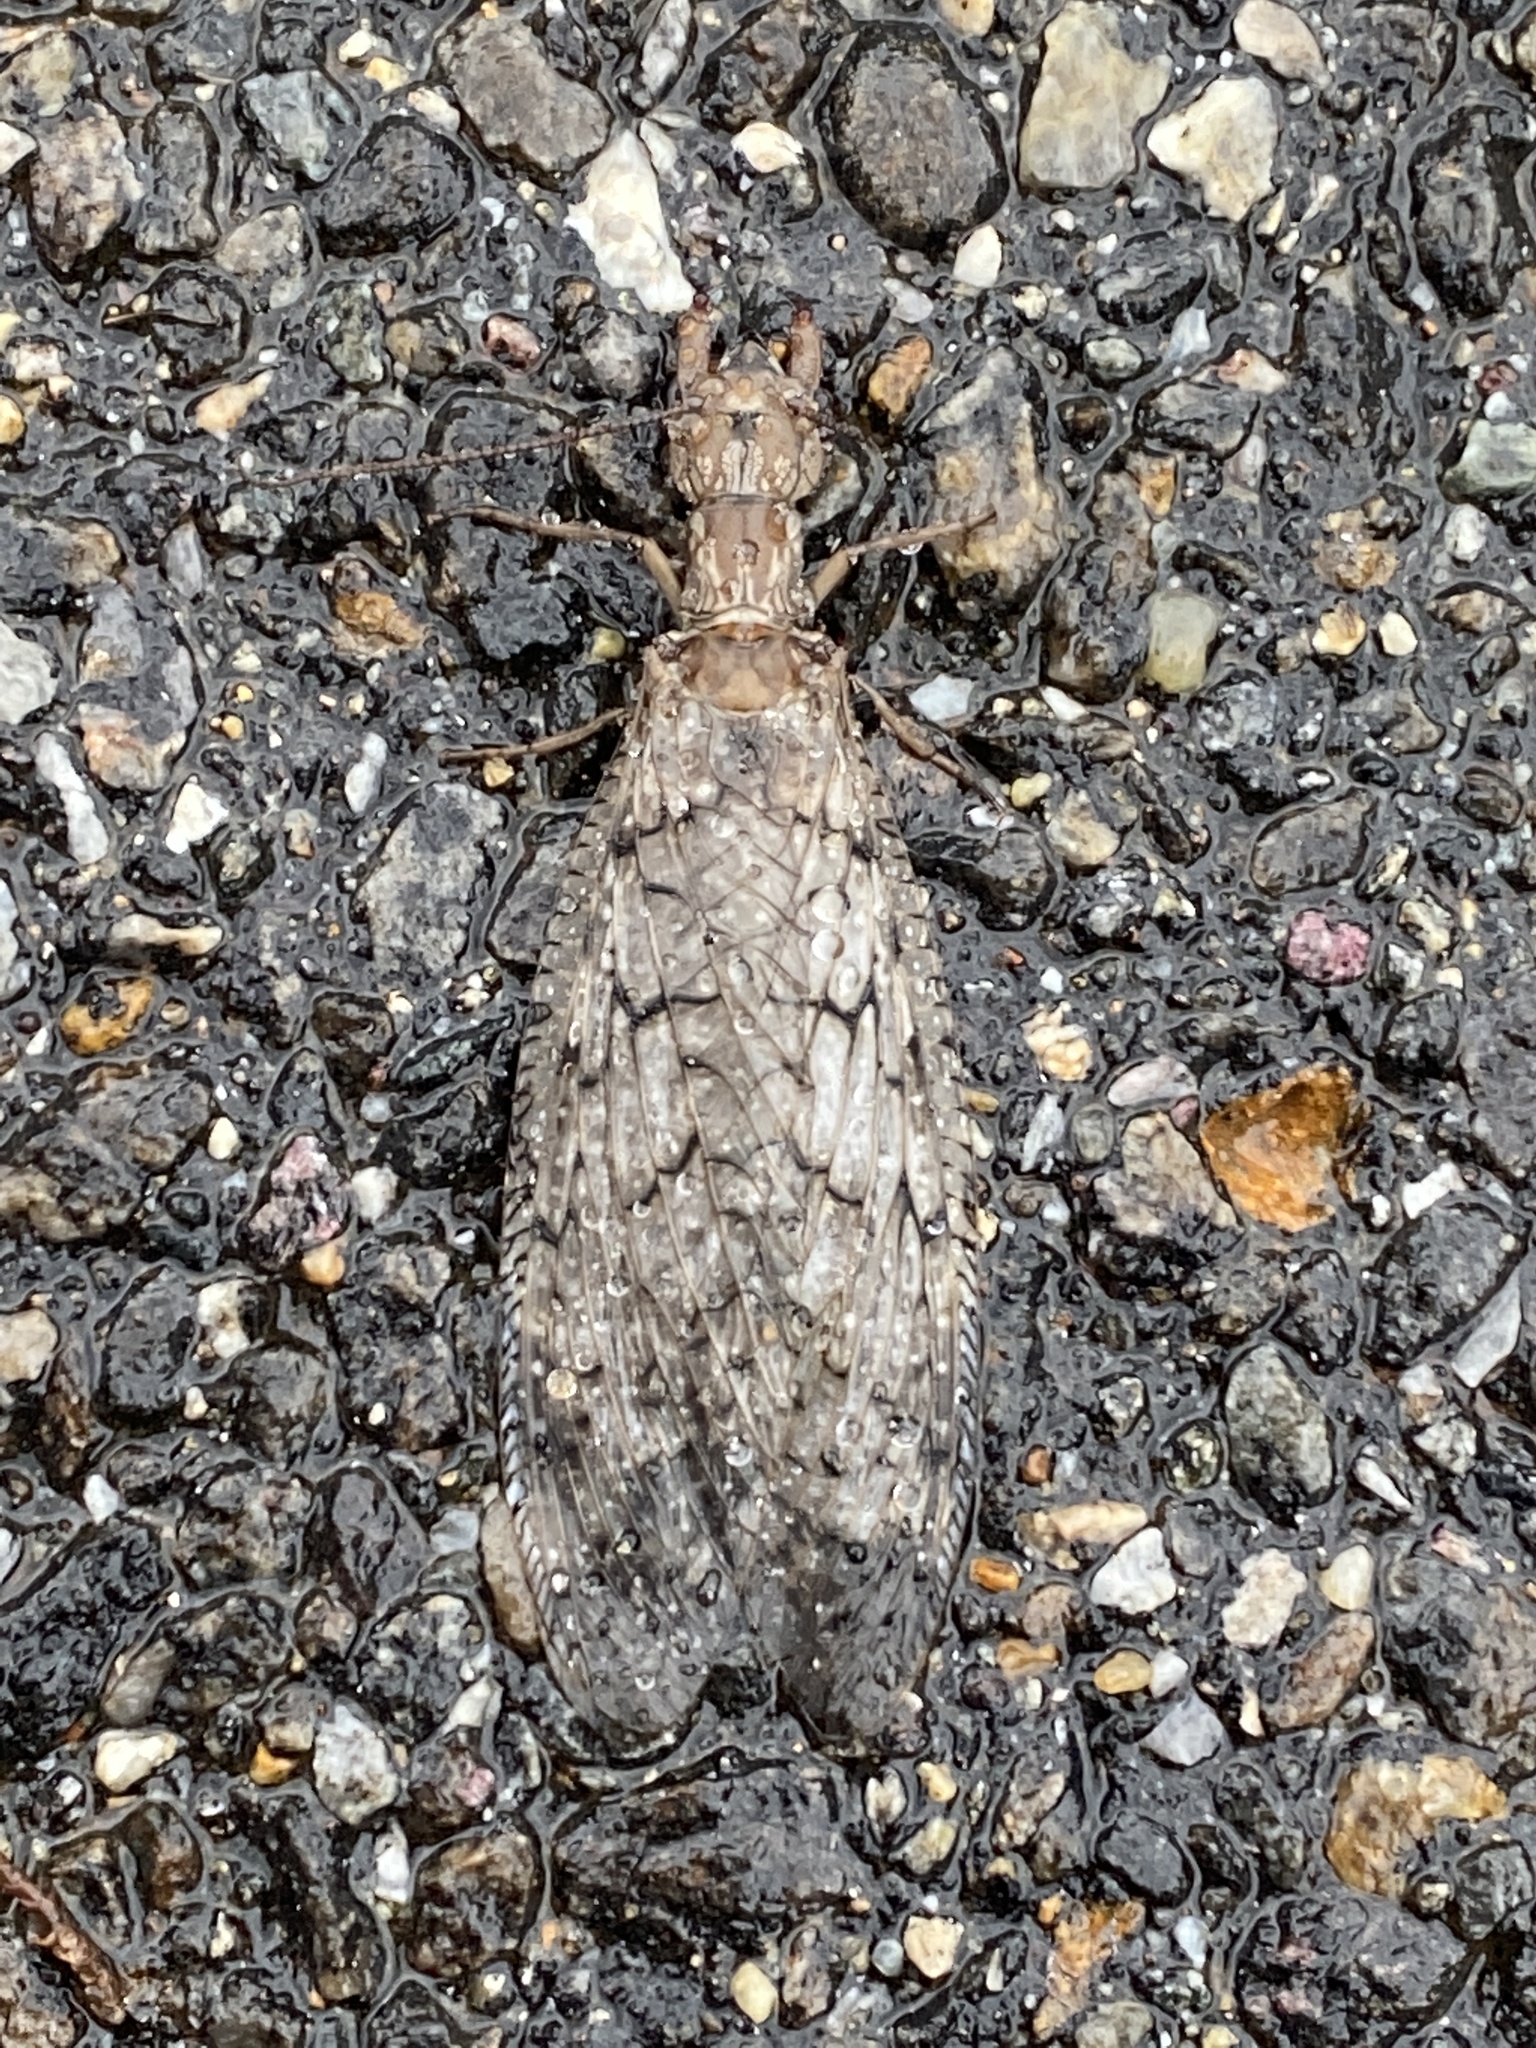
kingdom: Animalia
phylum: Arthropoda
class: Insecta
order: Megaloptera
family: Corydalidae
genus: Corydalus
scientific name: Corydalus cornutus
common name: Dobsonfly
